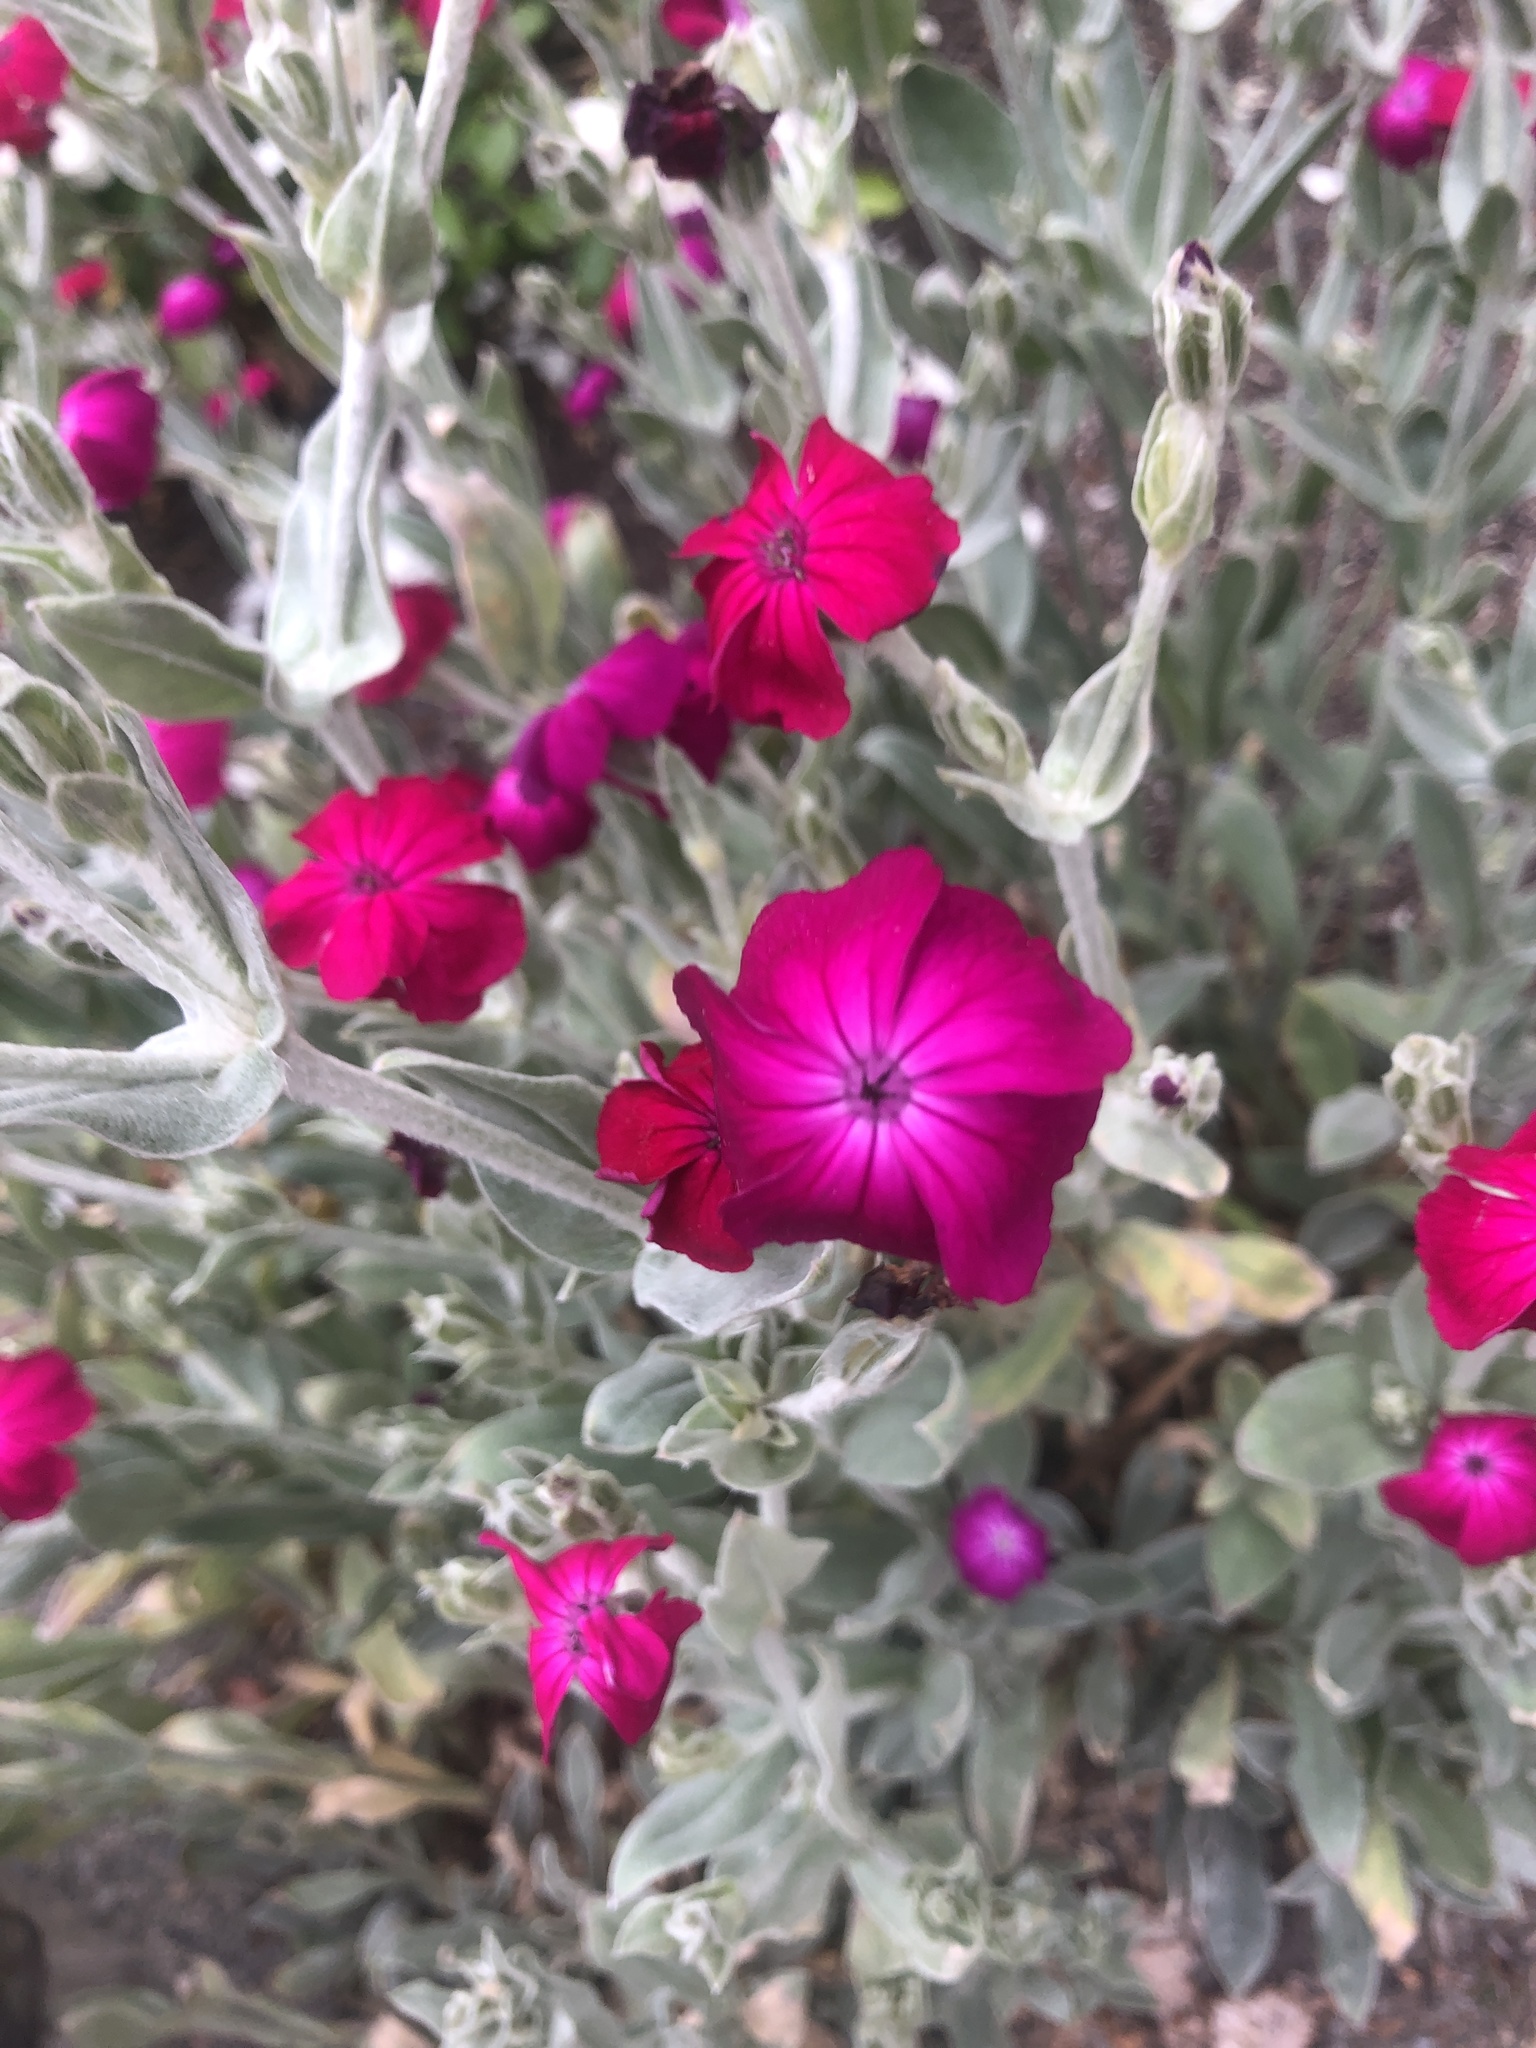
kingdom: Plantae
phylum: Tracheophyta
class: Magnoliopsida
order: Caryophyllales
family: Caryophyllaceae
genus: Silene
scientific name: Silene coronaria
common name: Rose campion
